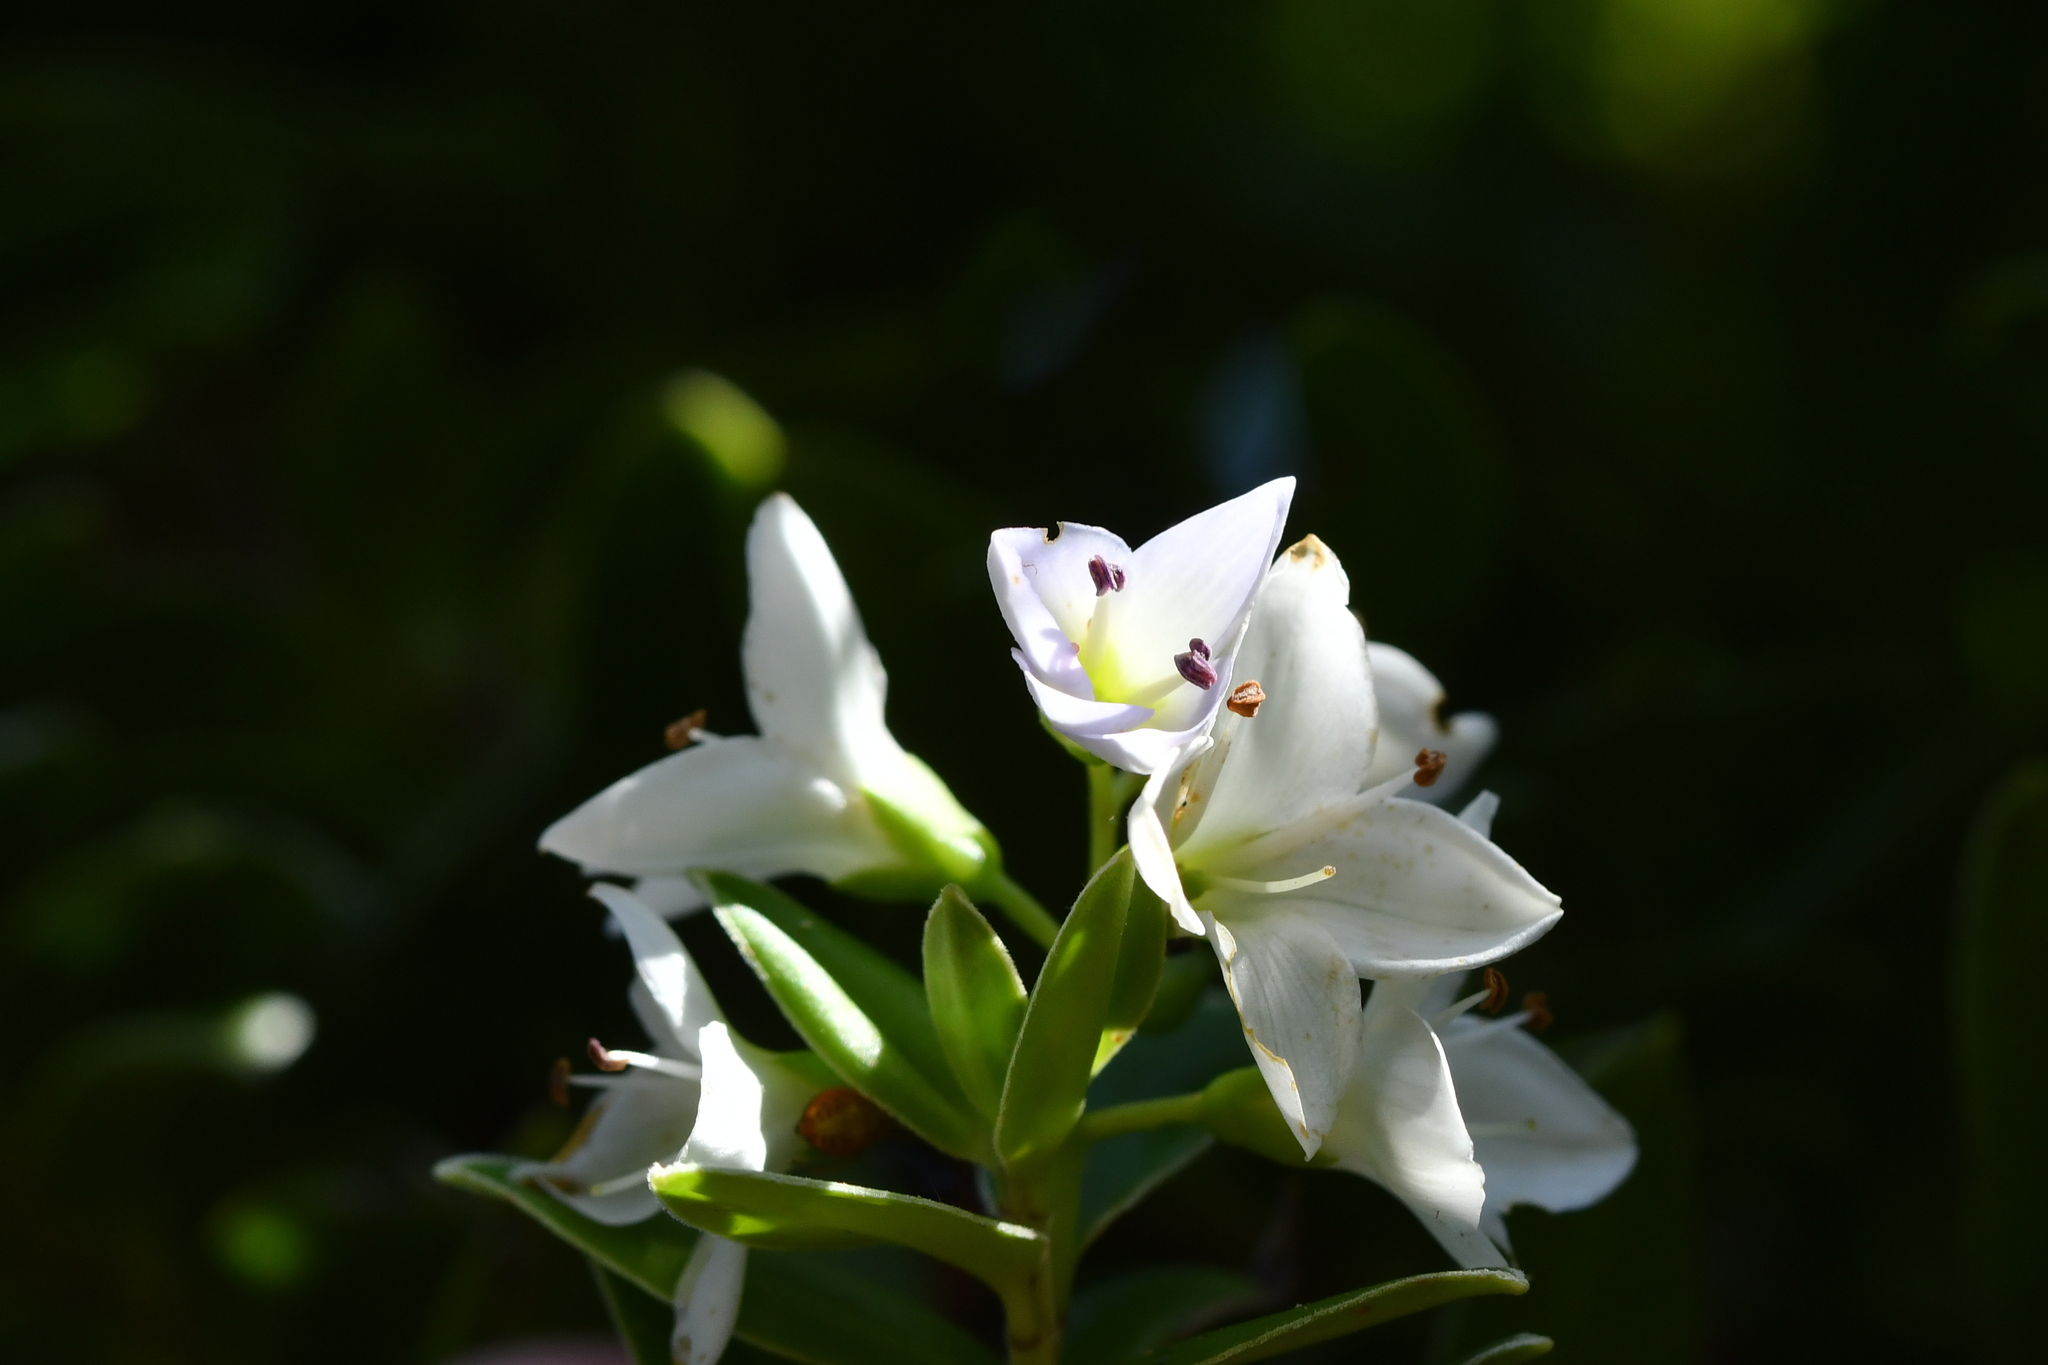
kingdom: Plantae
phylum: Tracheophyta
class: Magnoliopsida
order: Lamiales
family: Plantaginaceae
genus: Veronica
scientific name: Veronica elliptica
